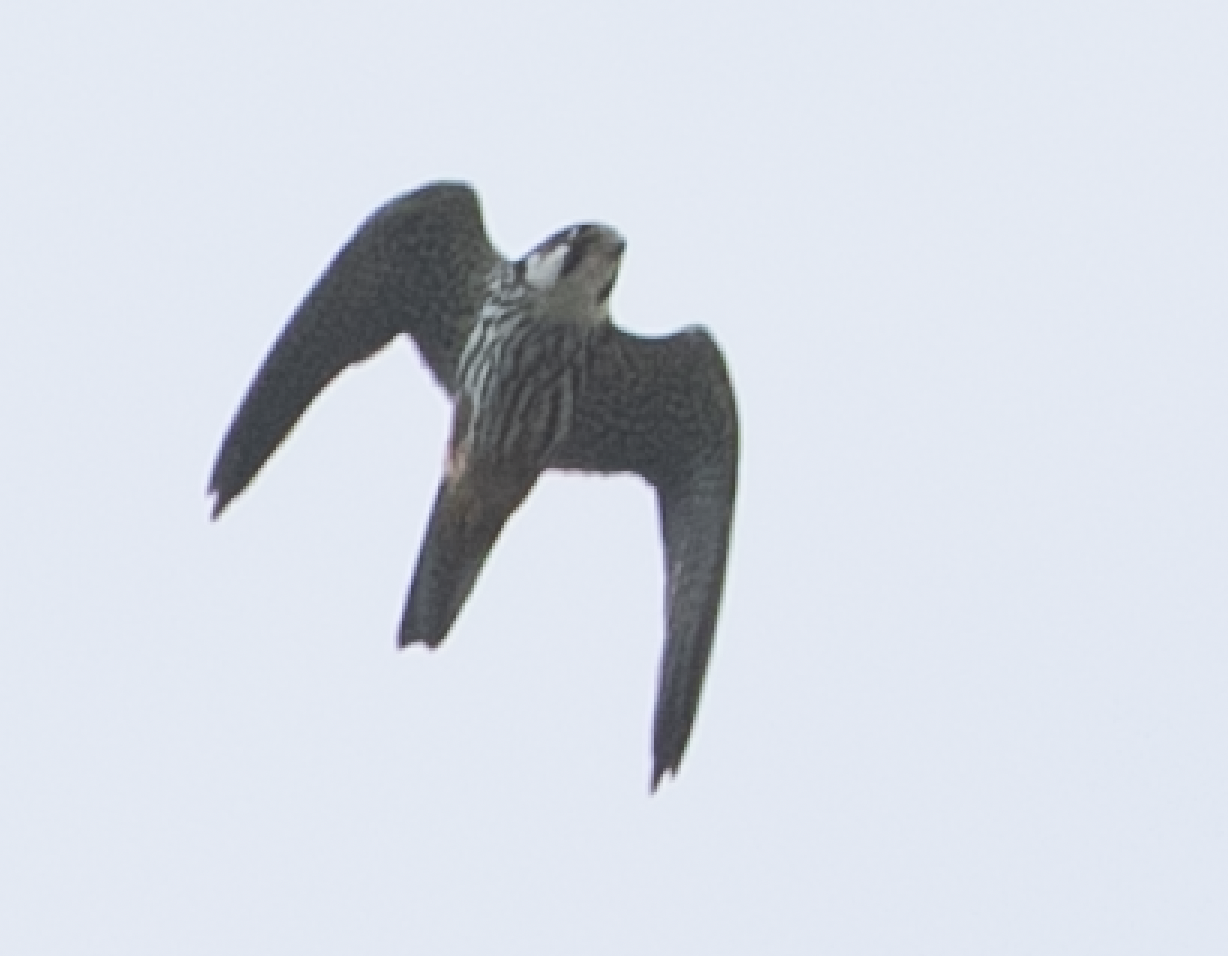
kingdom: Animalia
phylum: Chordata
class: Aves
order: Falconiformes
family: Falconidae
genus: Falco
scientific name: Falco subbuteo
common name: Eurasian hobby
